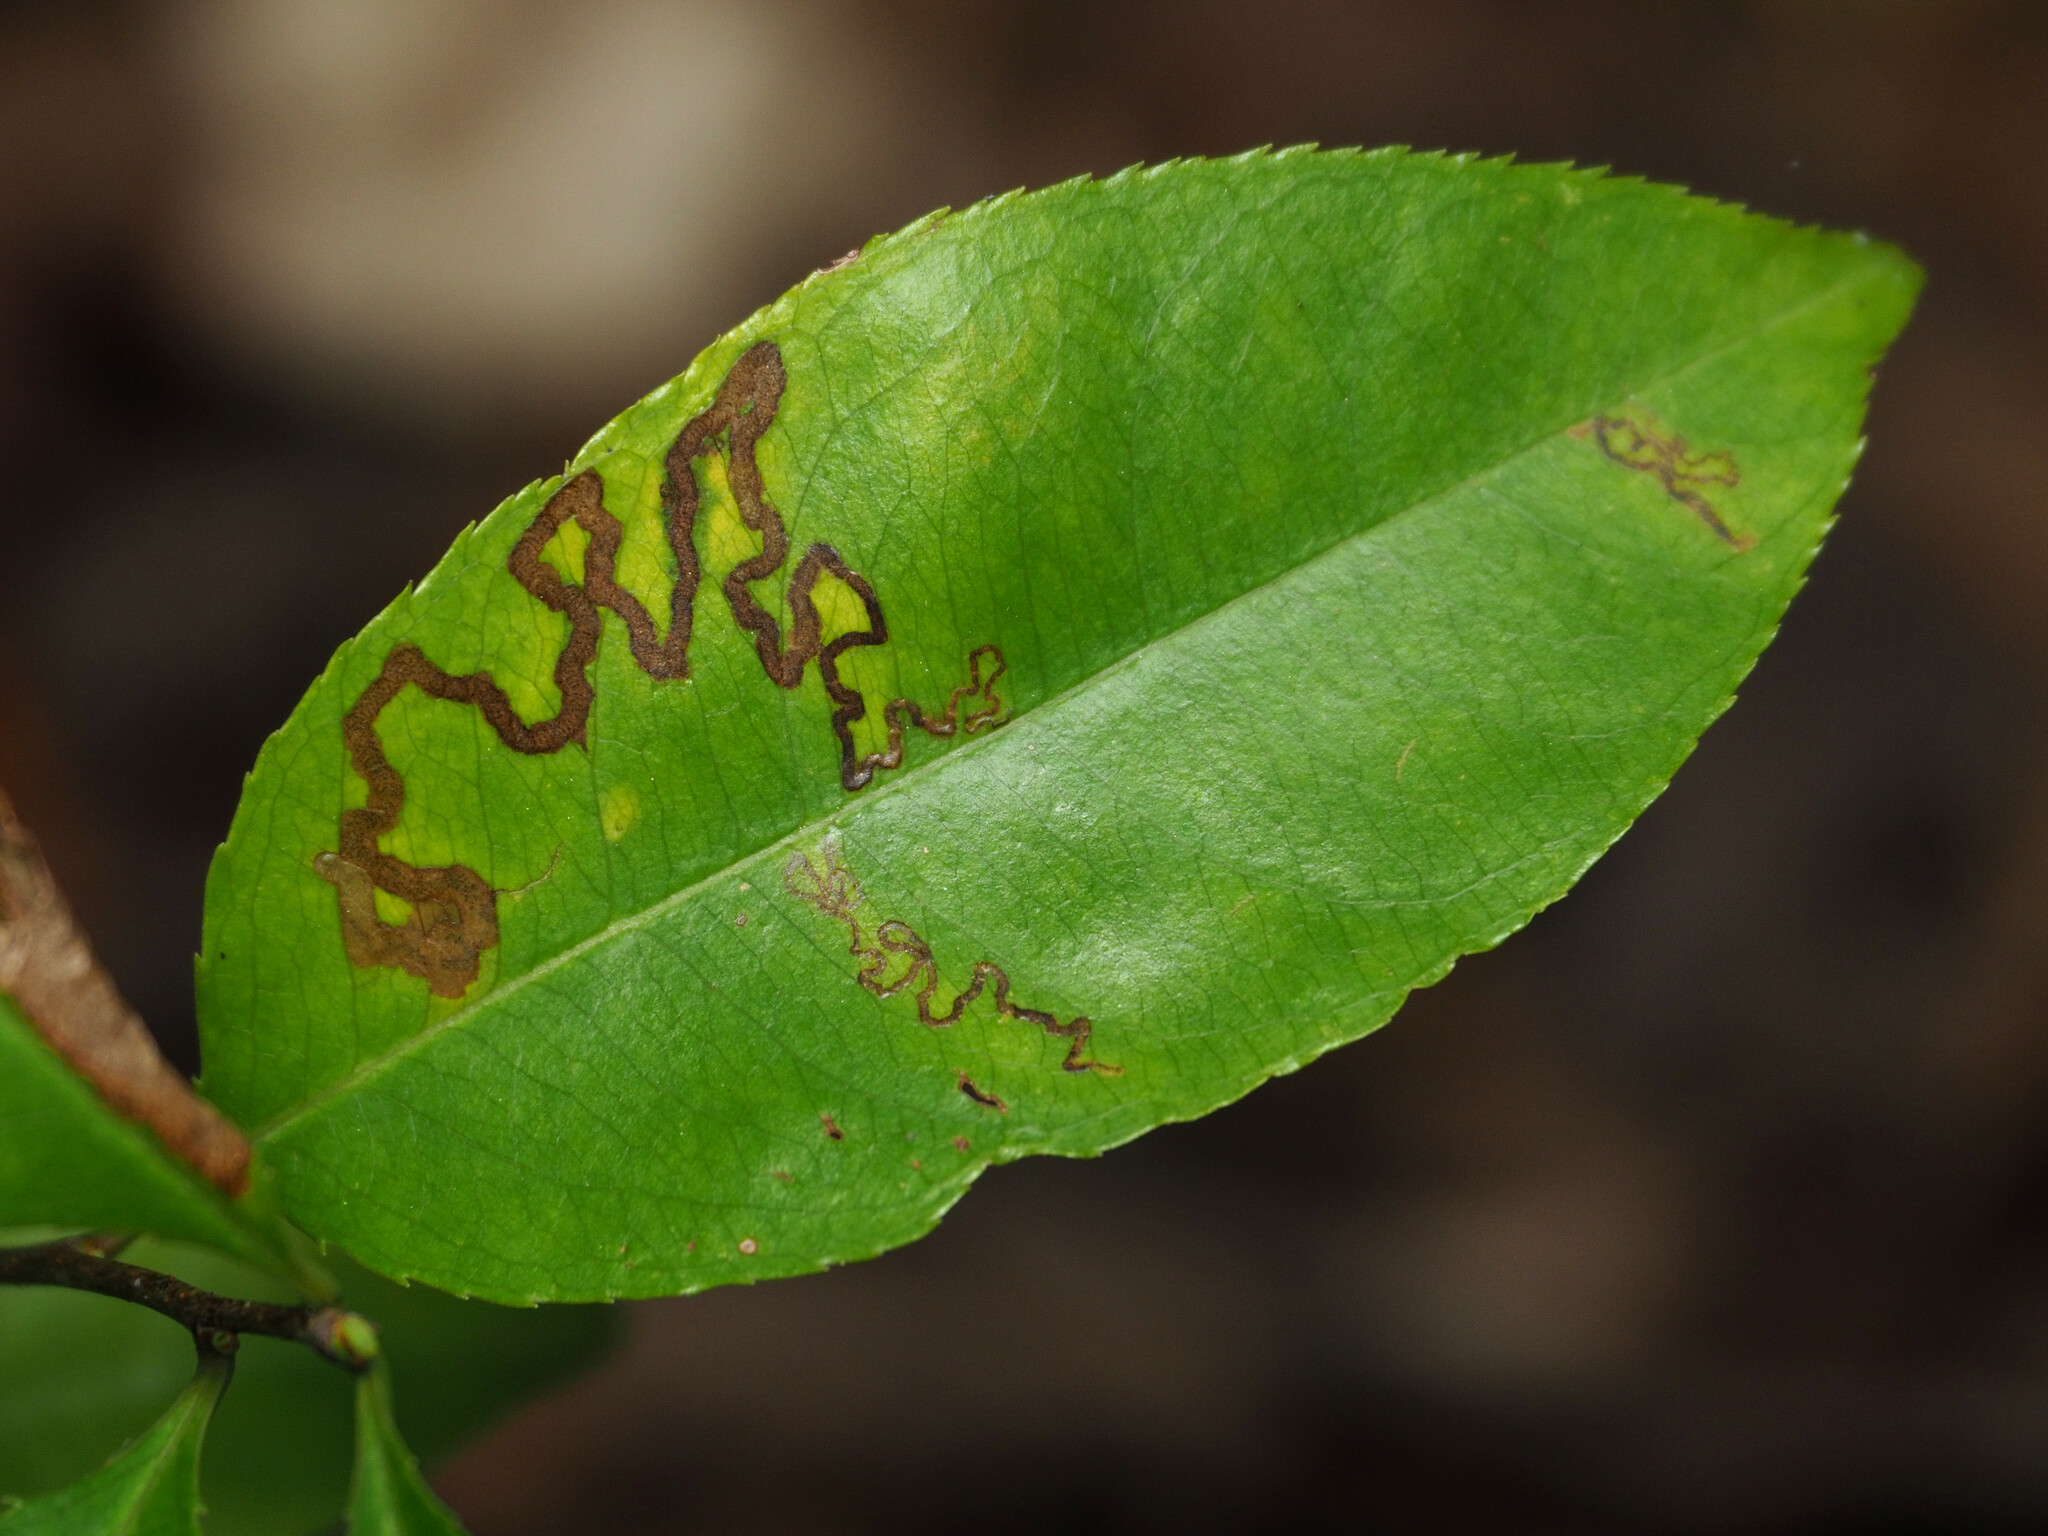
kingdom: Animalia
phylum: Arthropoda
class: Insecta
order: Lepidoptera
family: Nepticulidae
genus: Stigmella
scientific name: Stigmella prunifoliella
